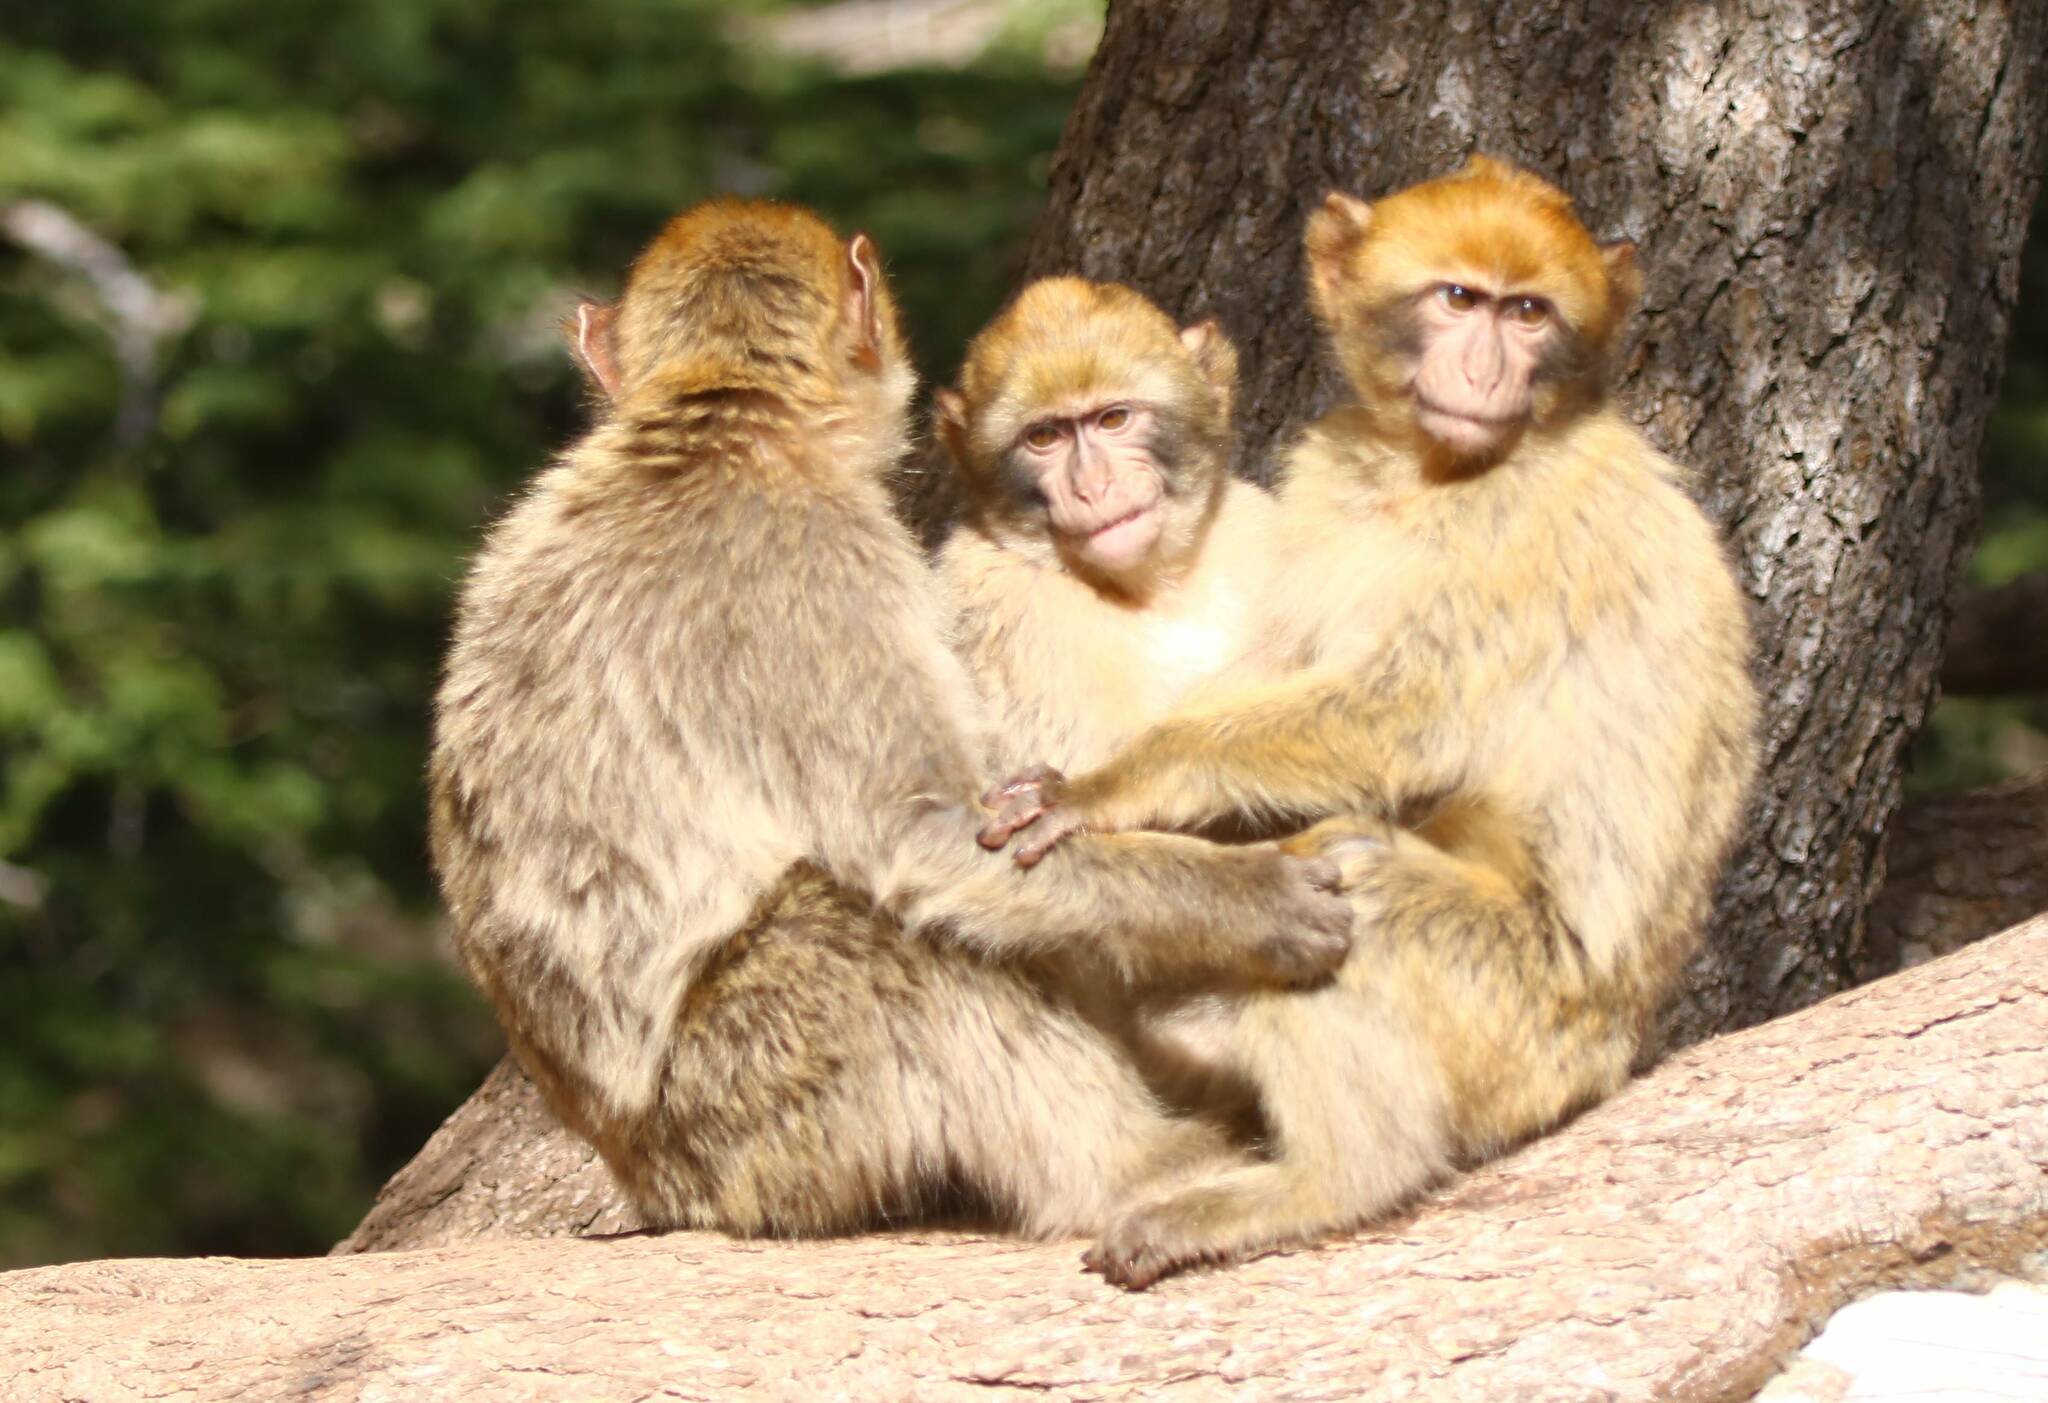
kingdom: Animalia
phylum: Chordata
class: Mammalia
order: Primates
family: Cercopithecidae
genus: Macaca
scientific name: Macaca sylvanus
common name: Barbary macaque
